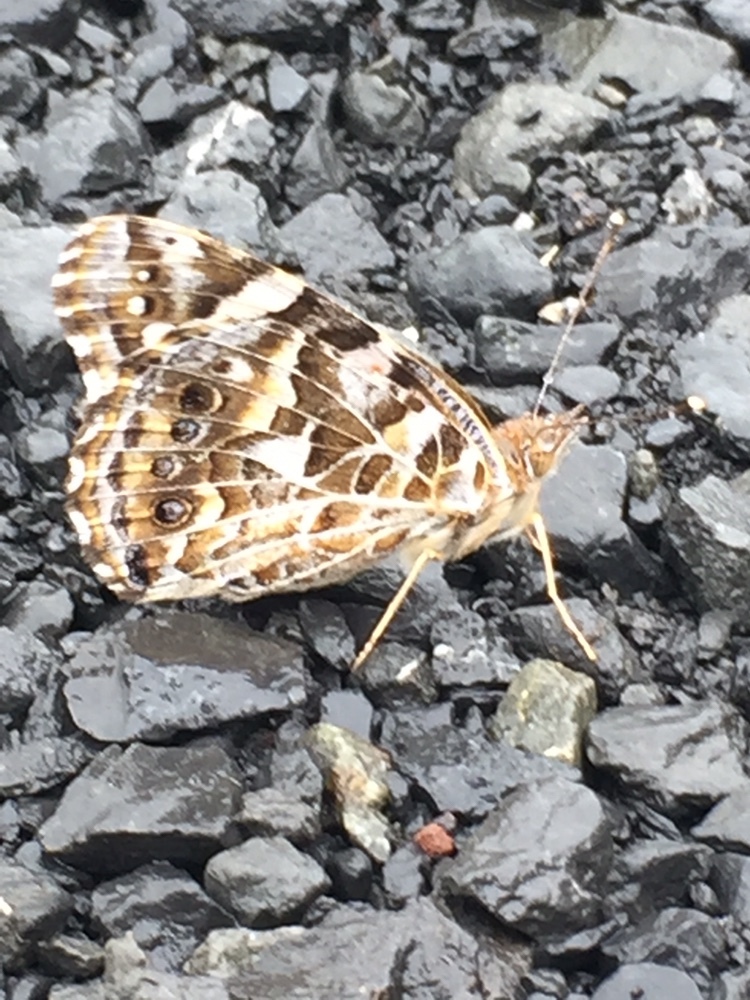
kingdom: Animalia
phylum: Arthropoda
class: Insecta
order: Lepidoptera
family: Nymphalidae
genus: Vanessa
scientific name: Vanessa kershawi
